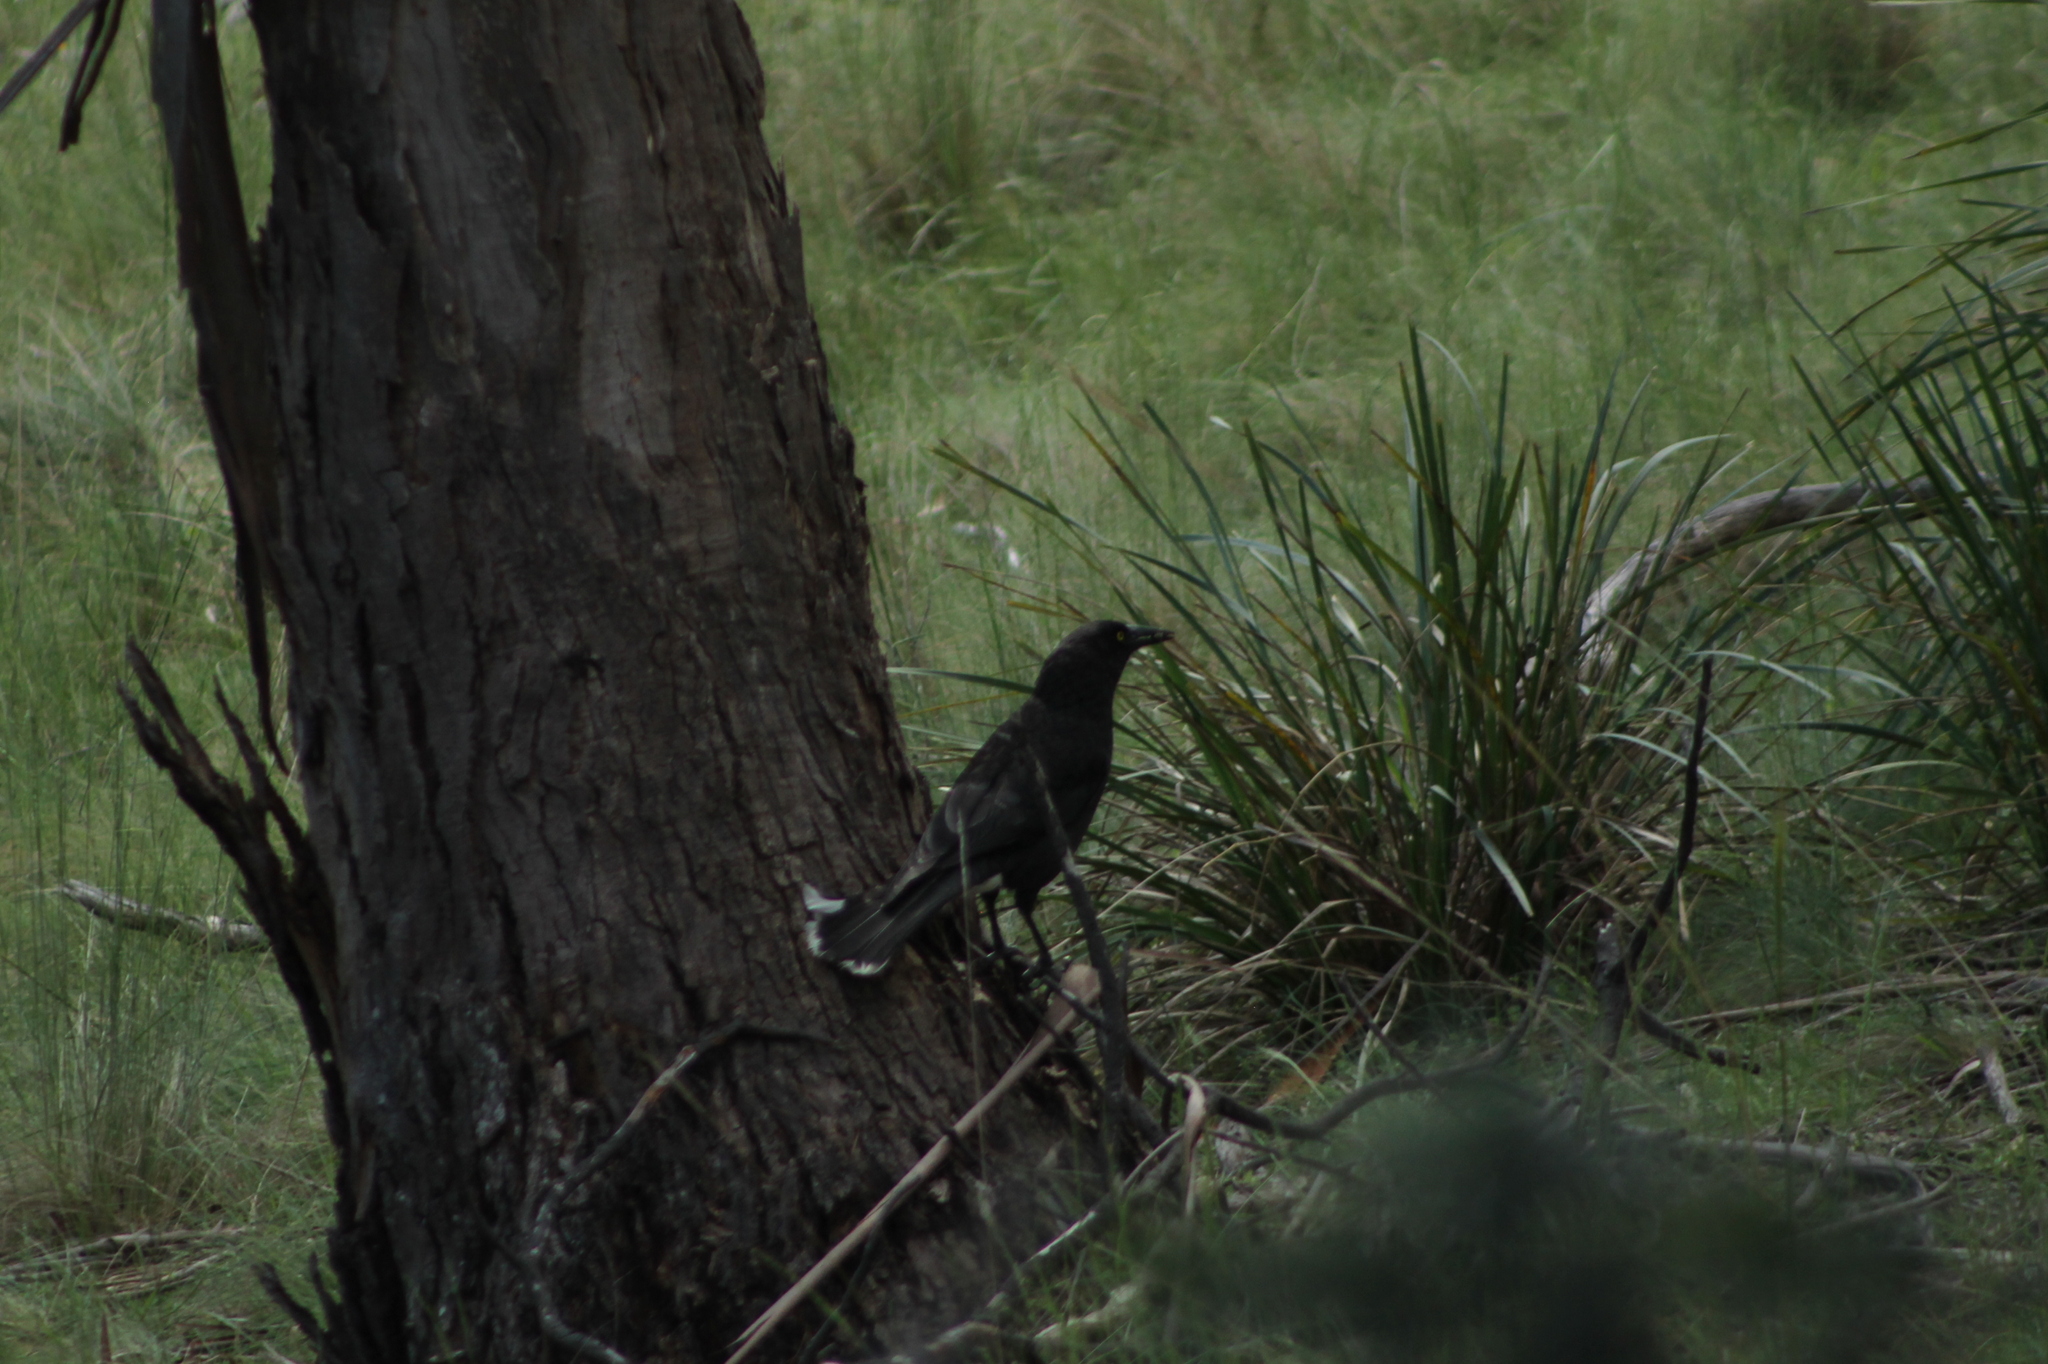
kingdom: Animalia
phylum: Chordata
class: Aves
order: Passeriformes
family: Cracticidae
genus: Strepera
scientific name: Strepera versicolor
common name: Grey currawong
